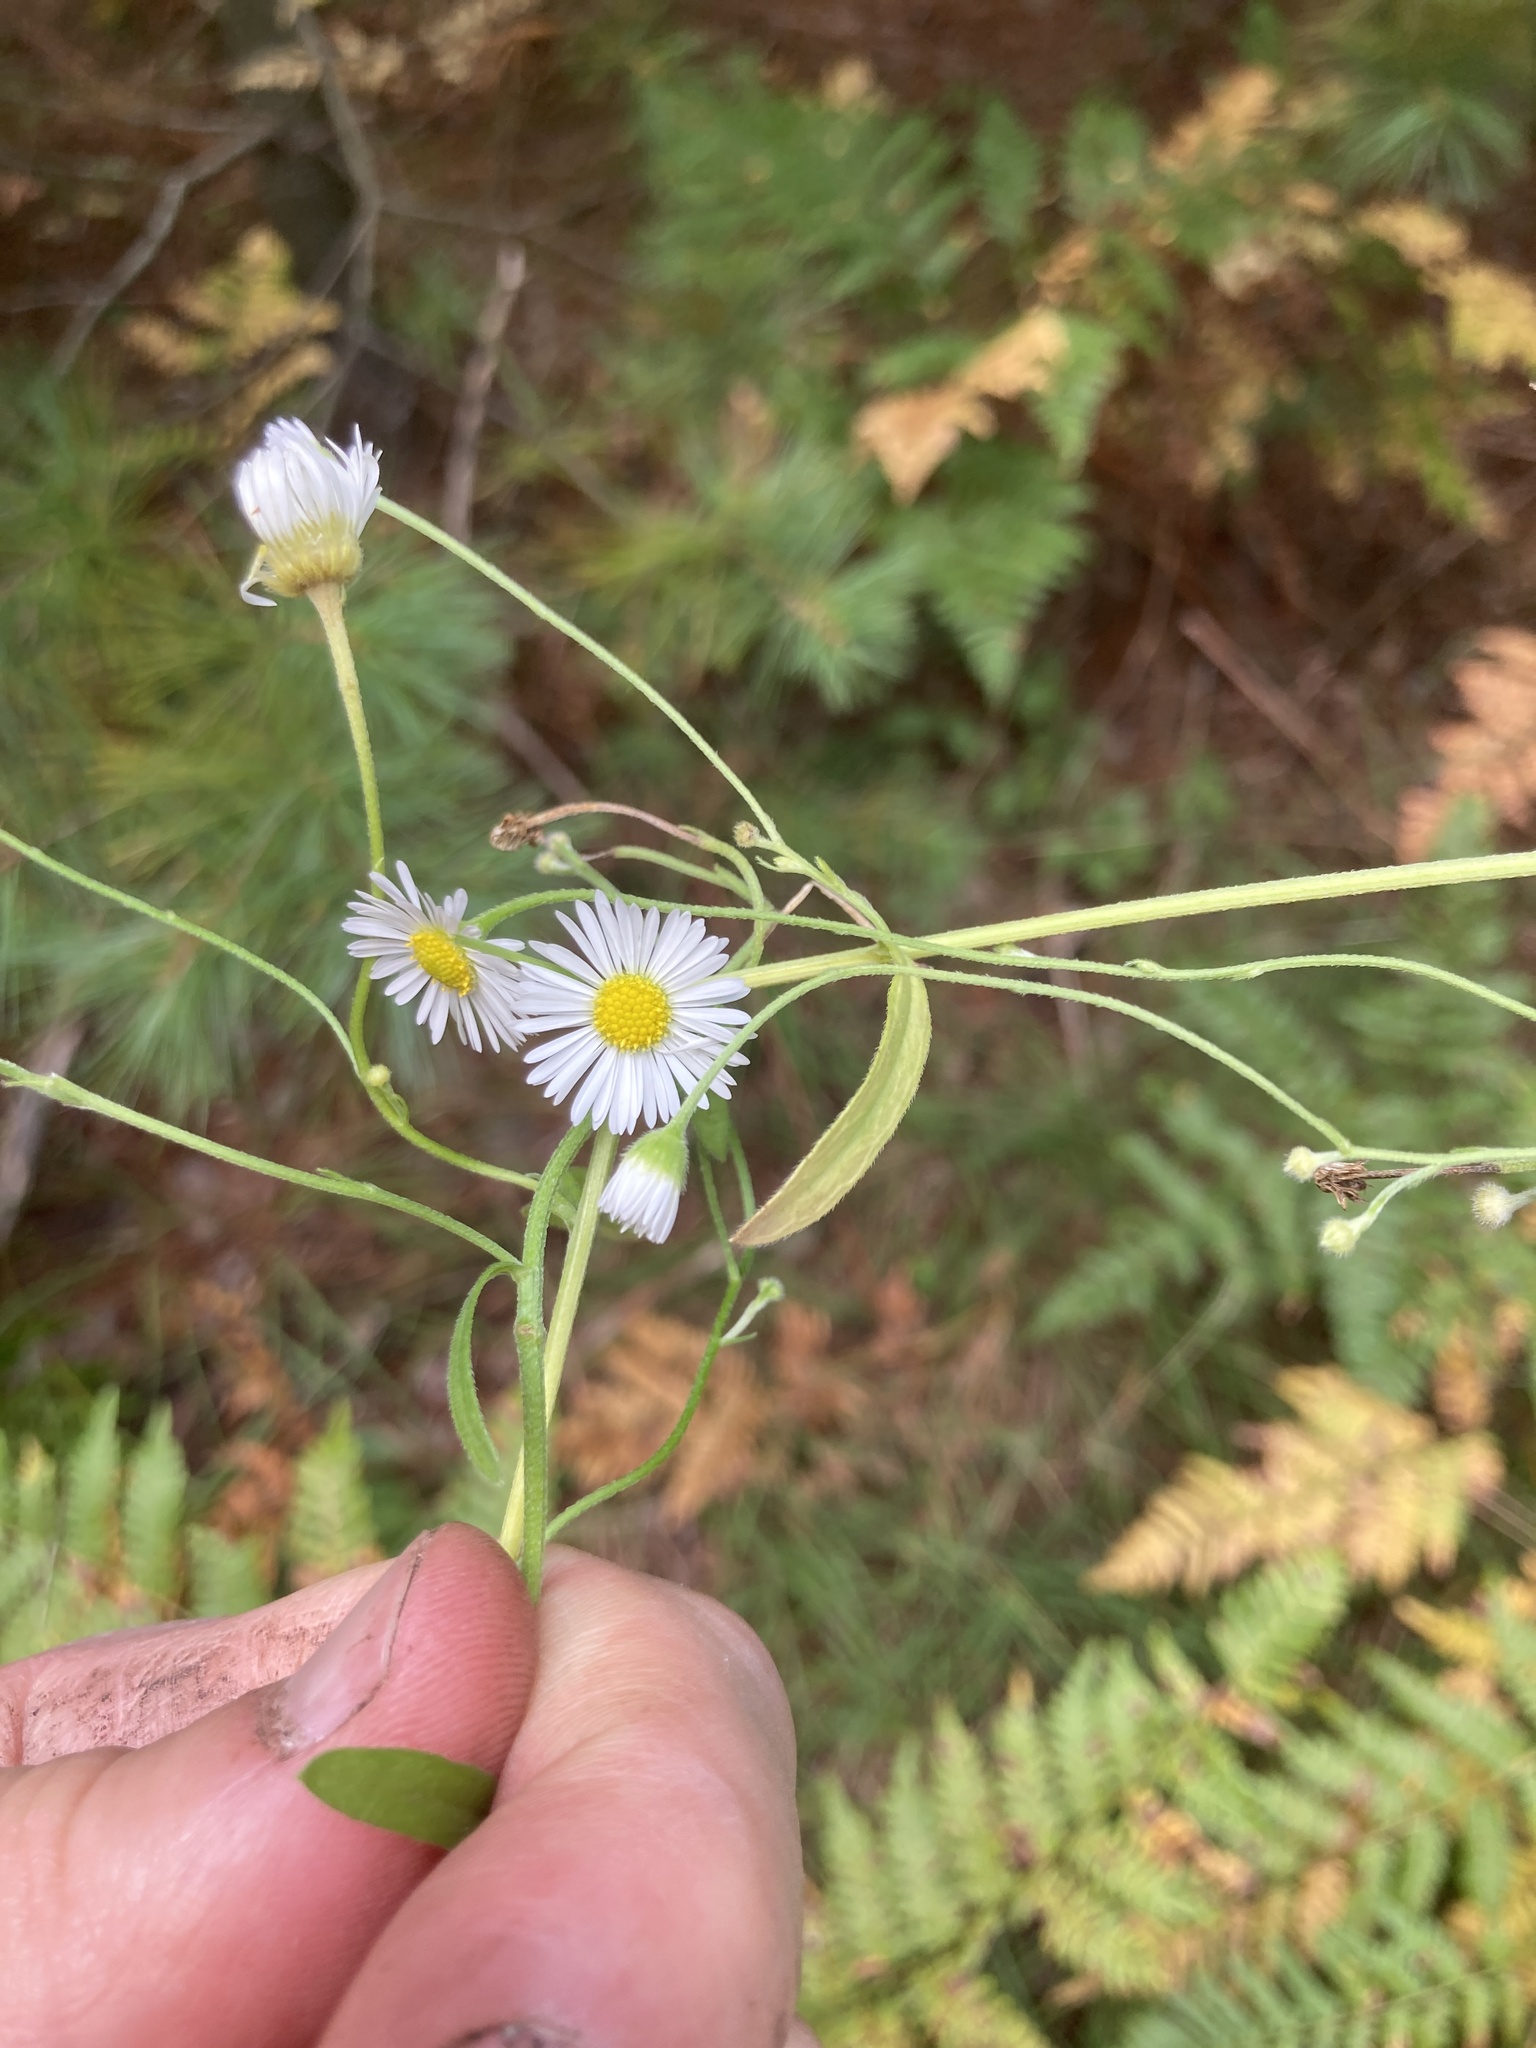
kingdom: Plantae
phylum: Tracheophyta
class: Magnoliopsida
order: Asterales
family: Asteraceae
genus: Erigeron
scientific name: Erigeron strigosus
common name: Common eastern fleabane
